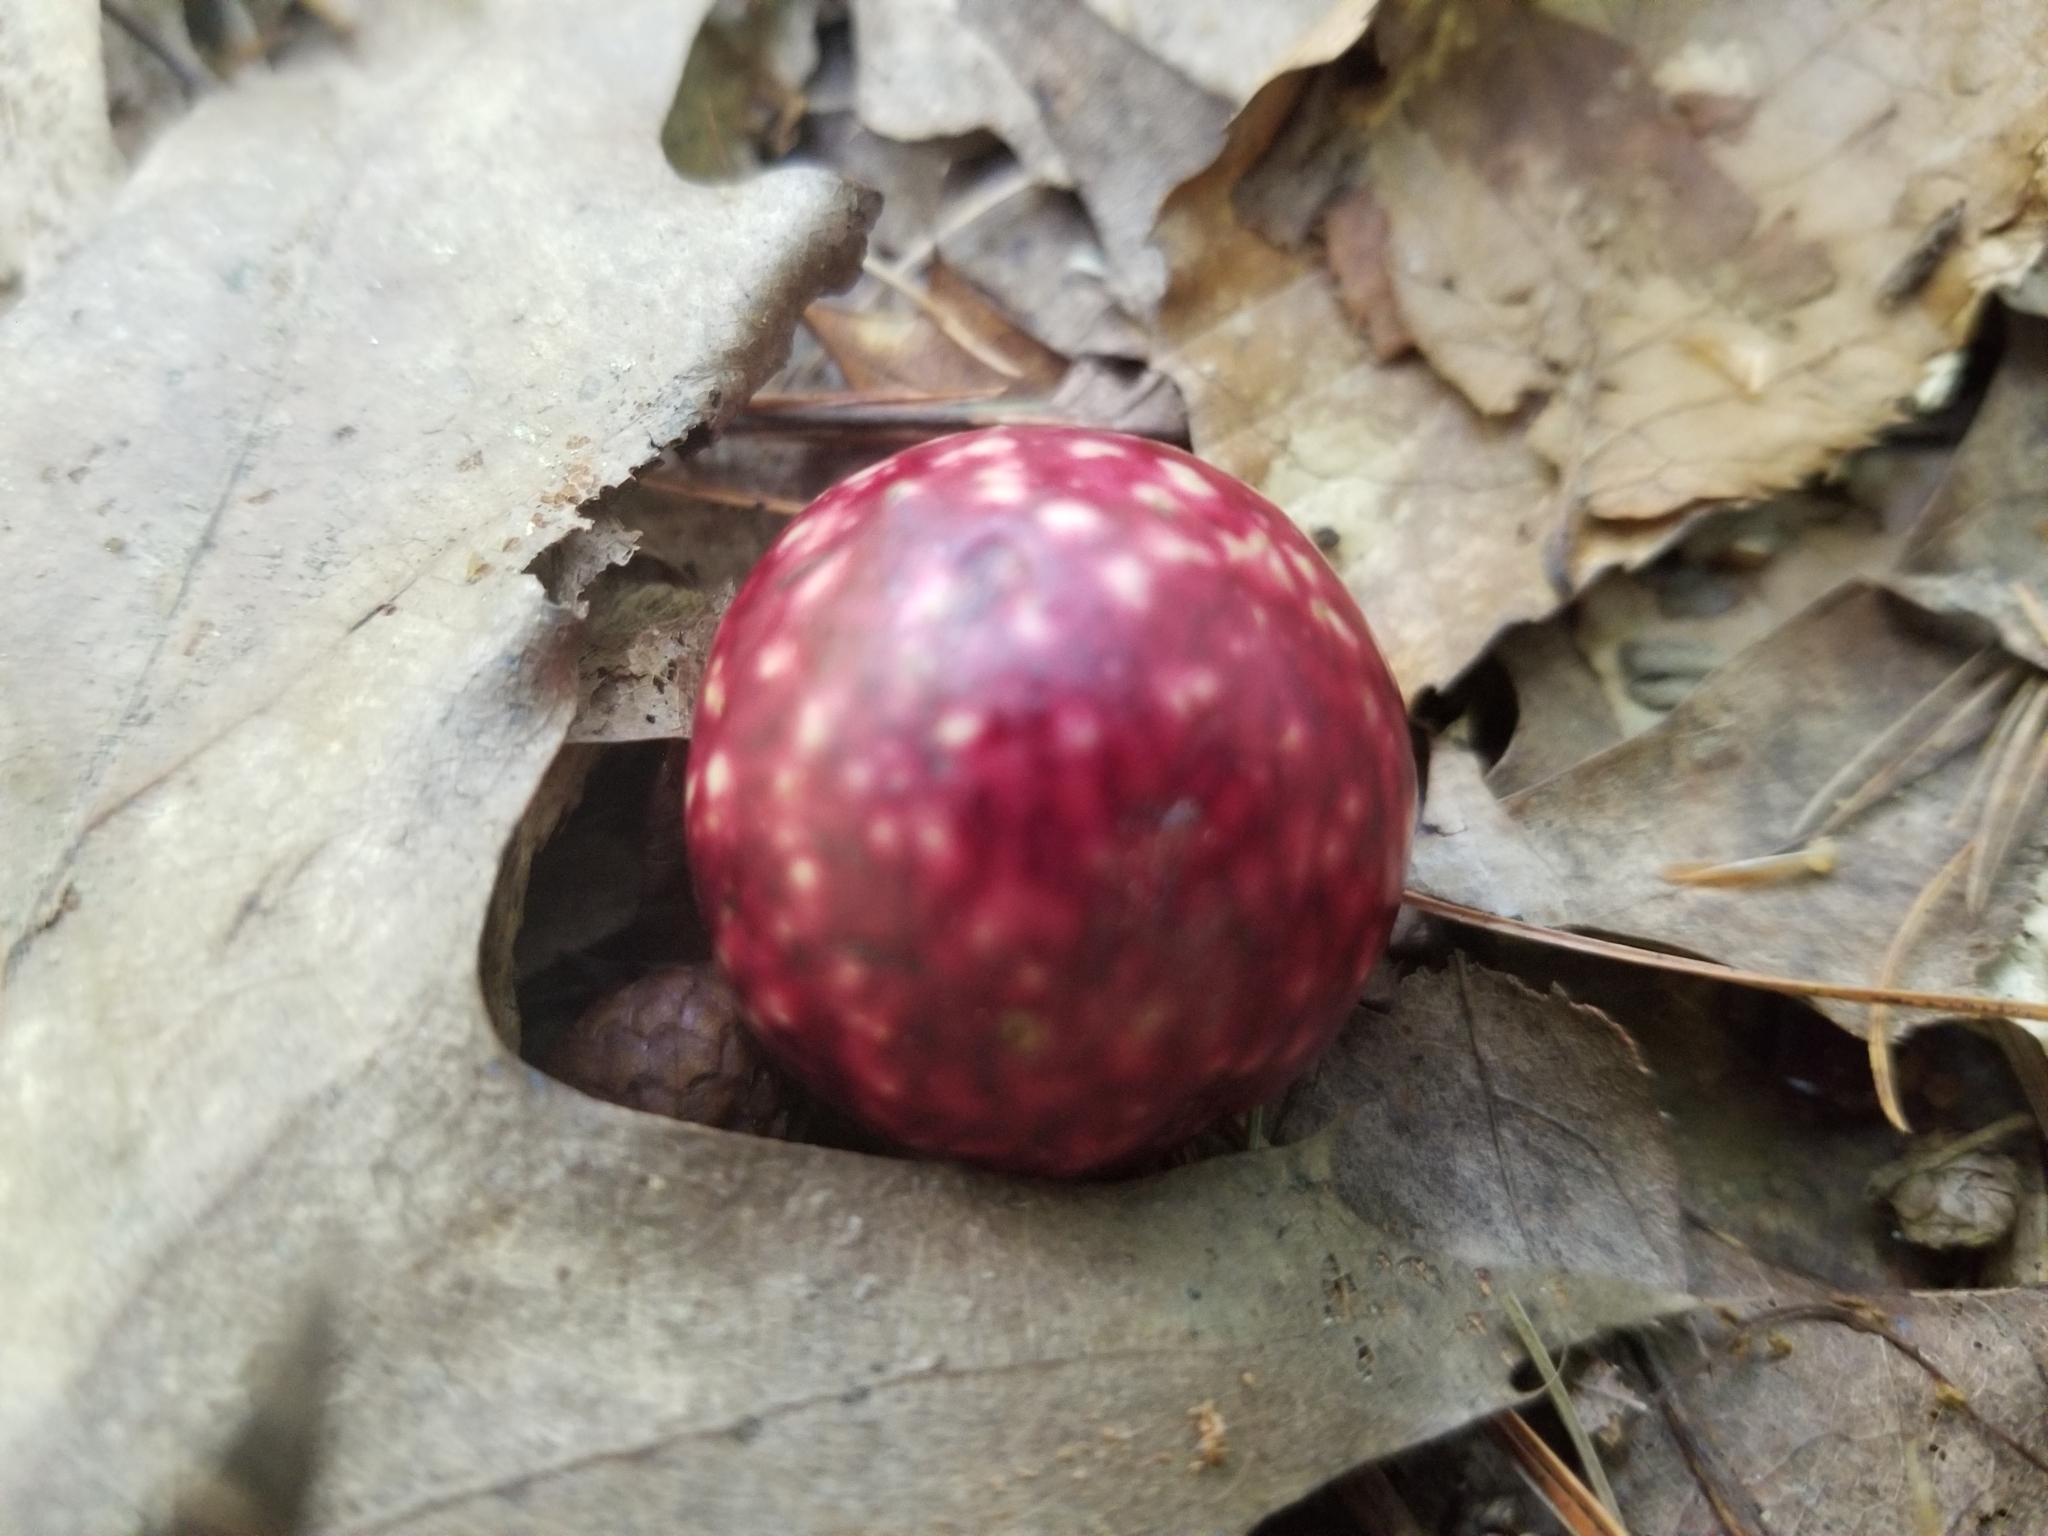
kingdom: Animalia
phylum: Arthropoda
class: Insecta
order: Hymenoptera
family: Cynipidae
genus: Amphibolips
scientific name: Amphibolips
